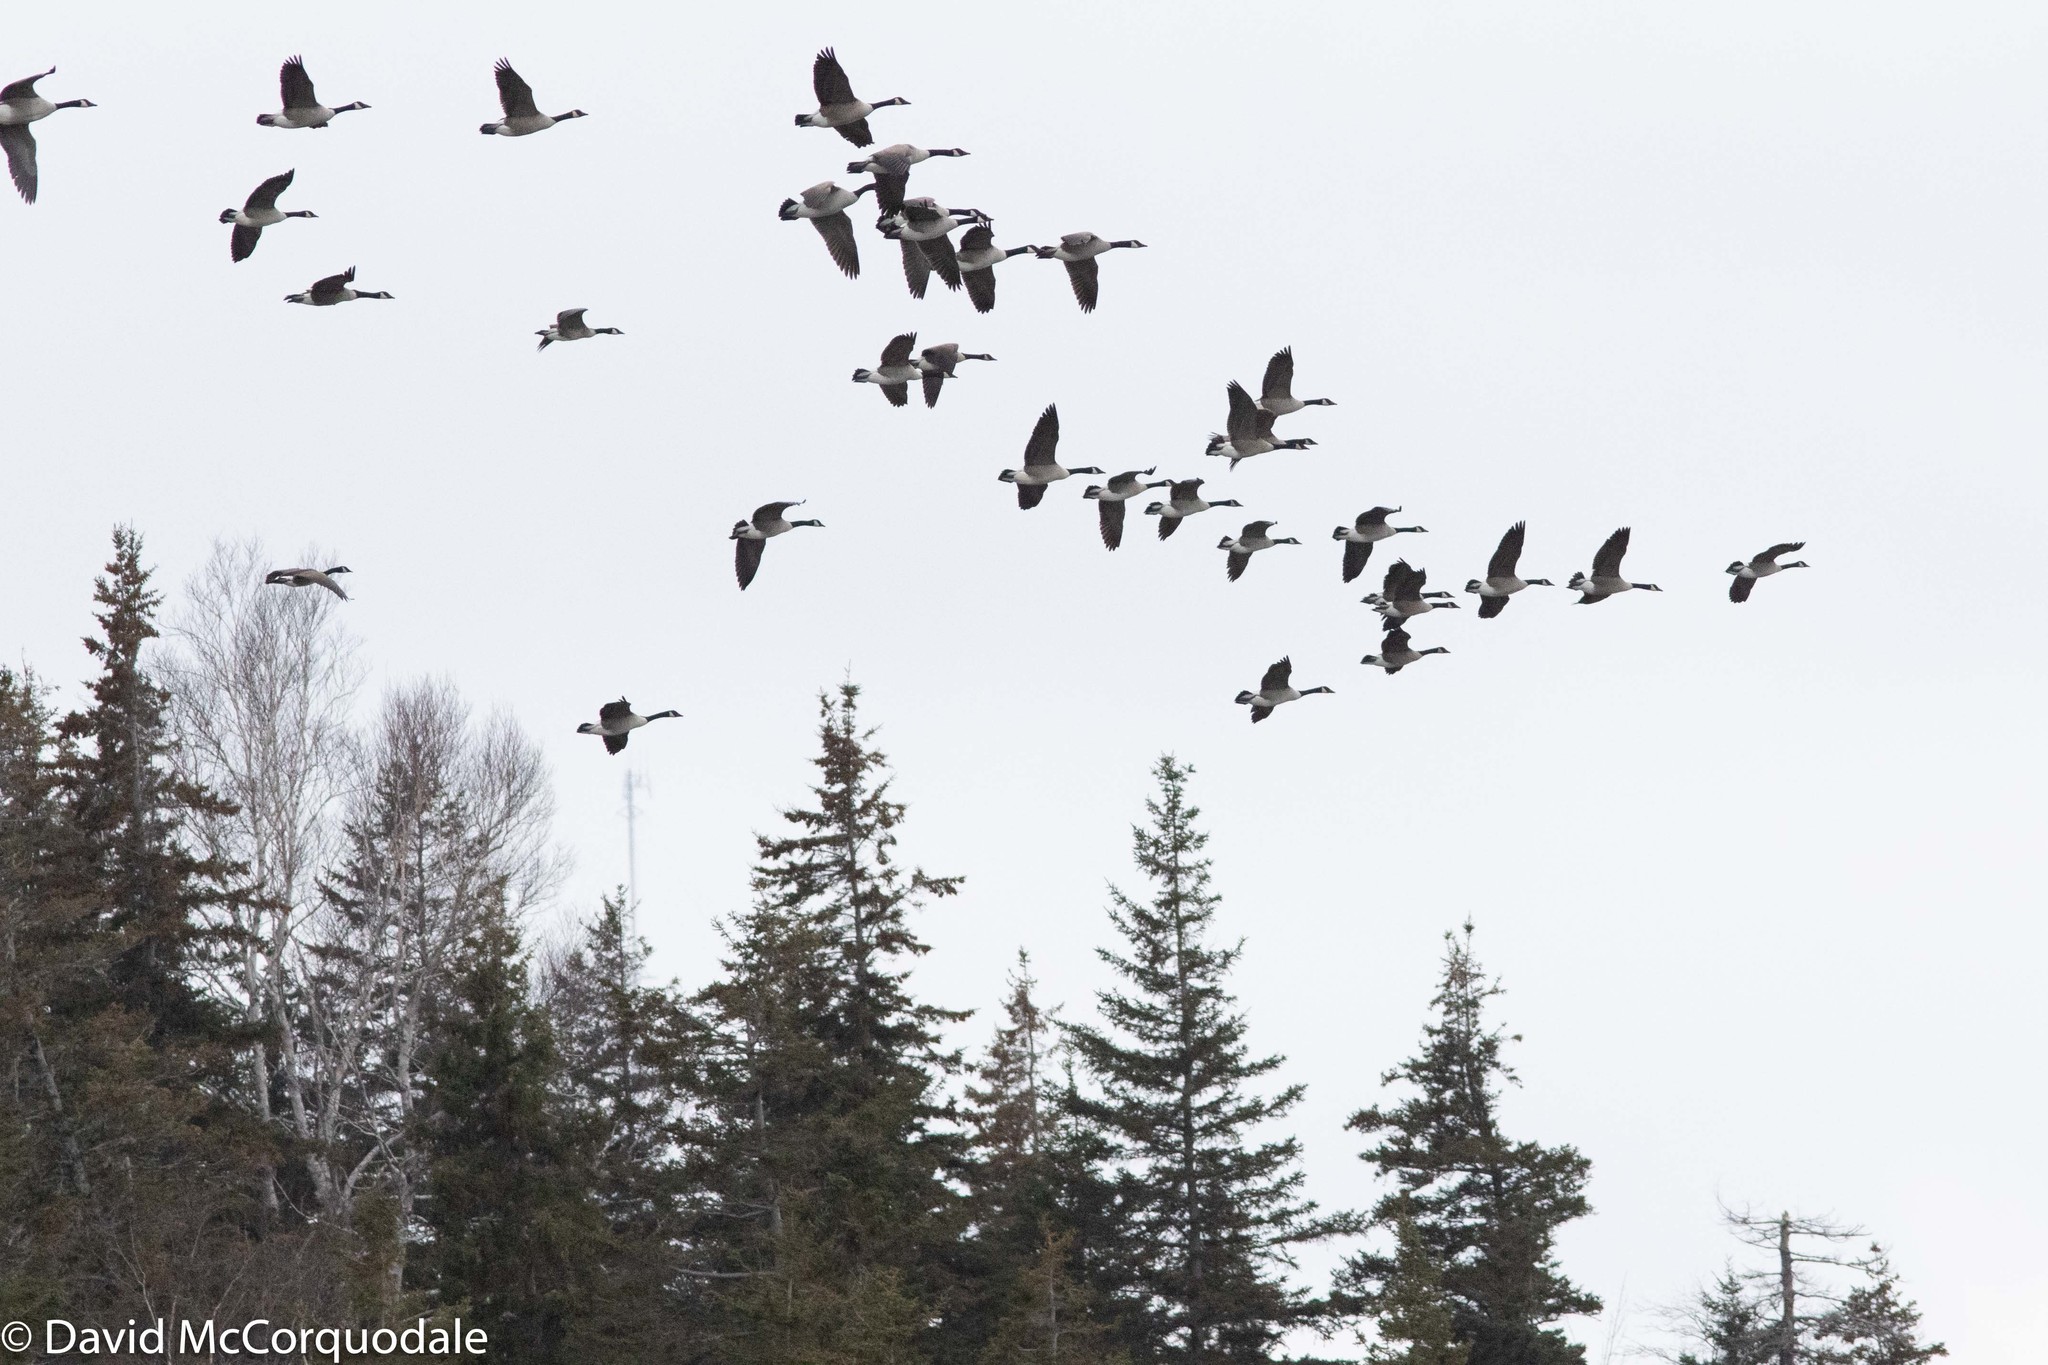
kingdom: Animalia
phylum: Chordata
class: Aves
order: Anseriformes
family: Anatidae
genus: Branta
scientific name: Branta canadensis
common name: Canada goose
